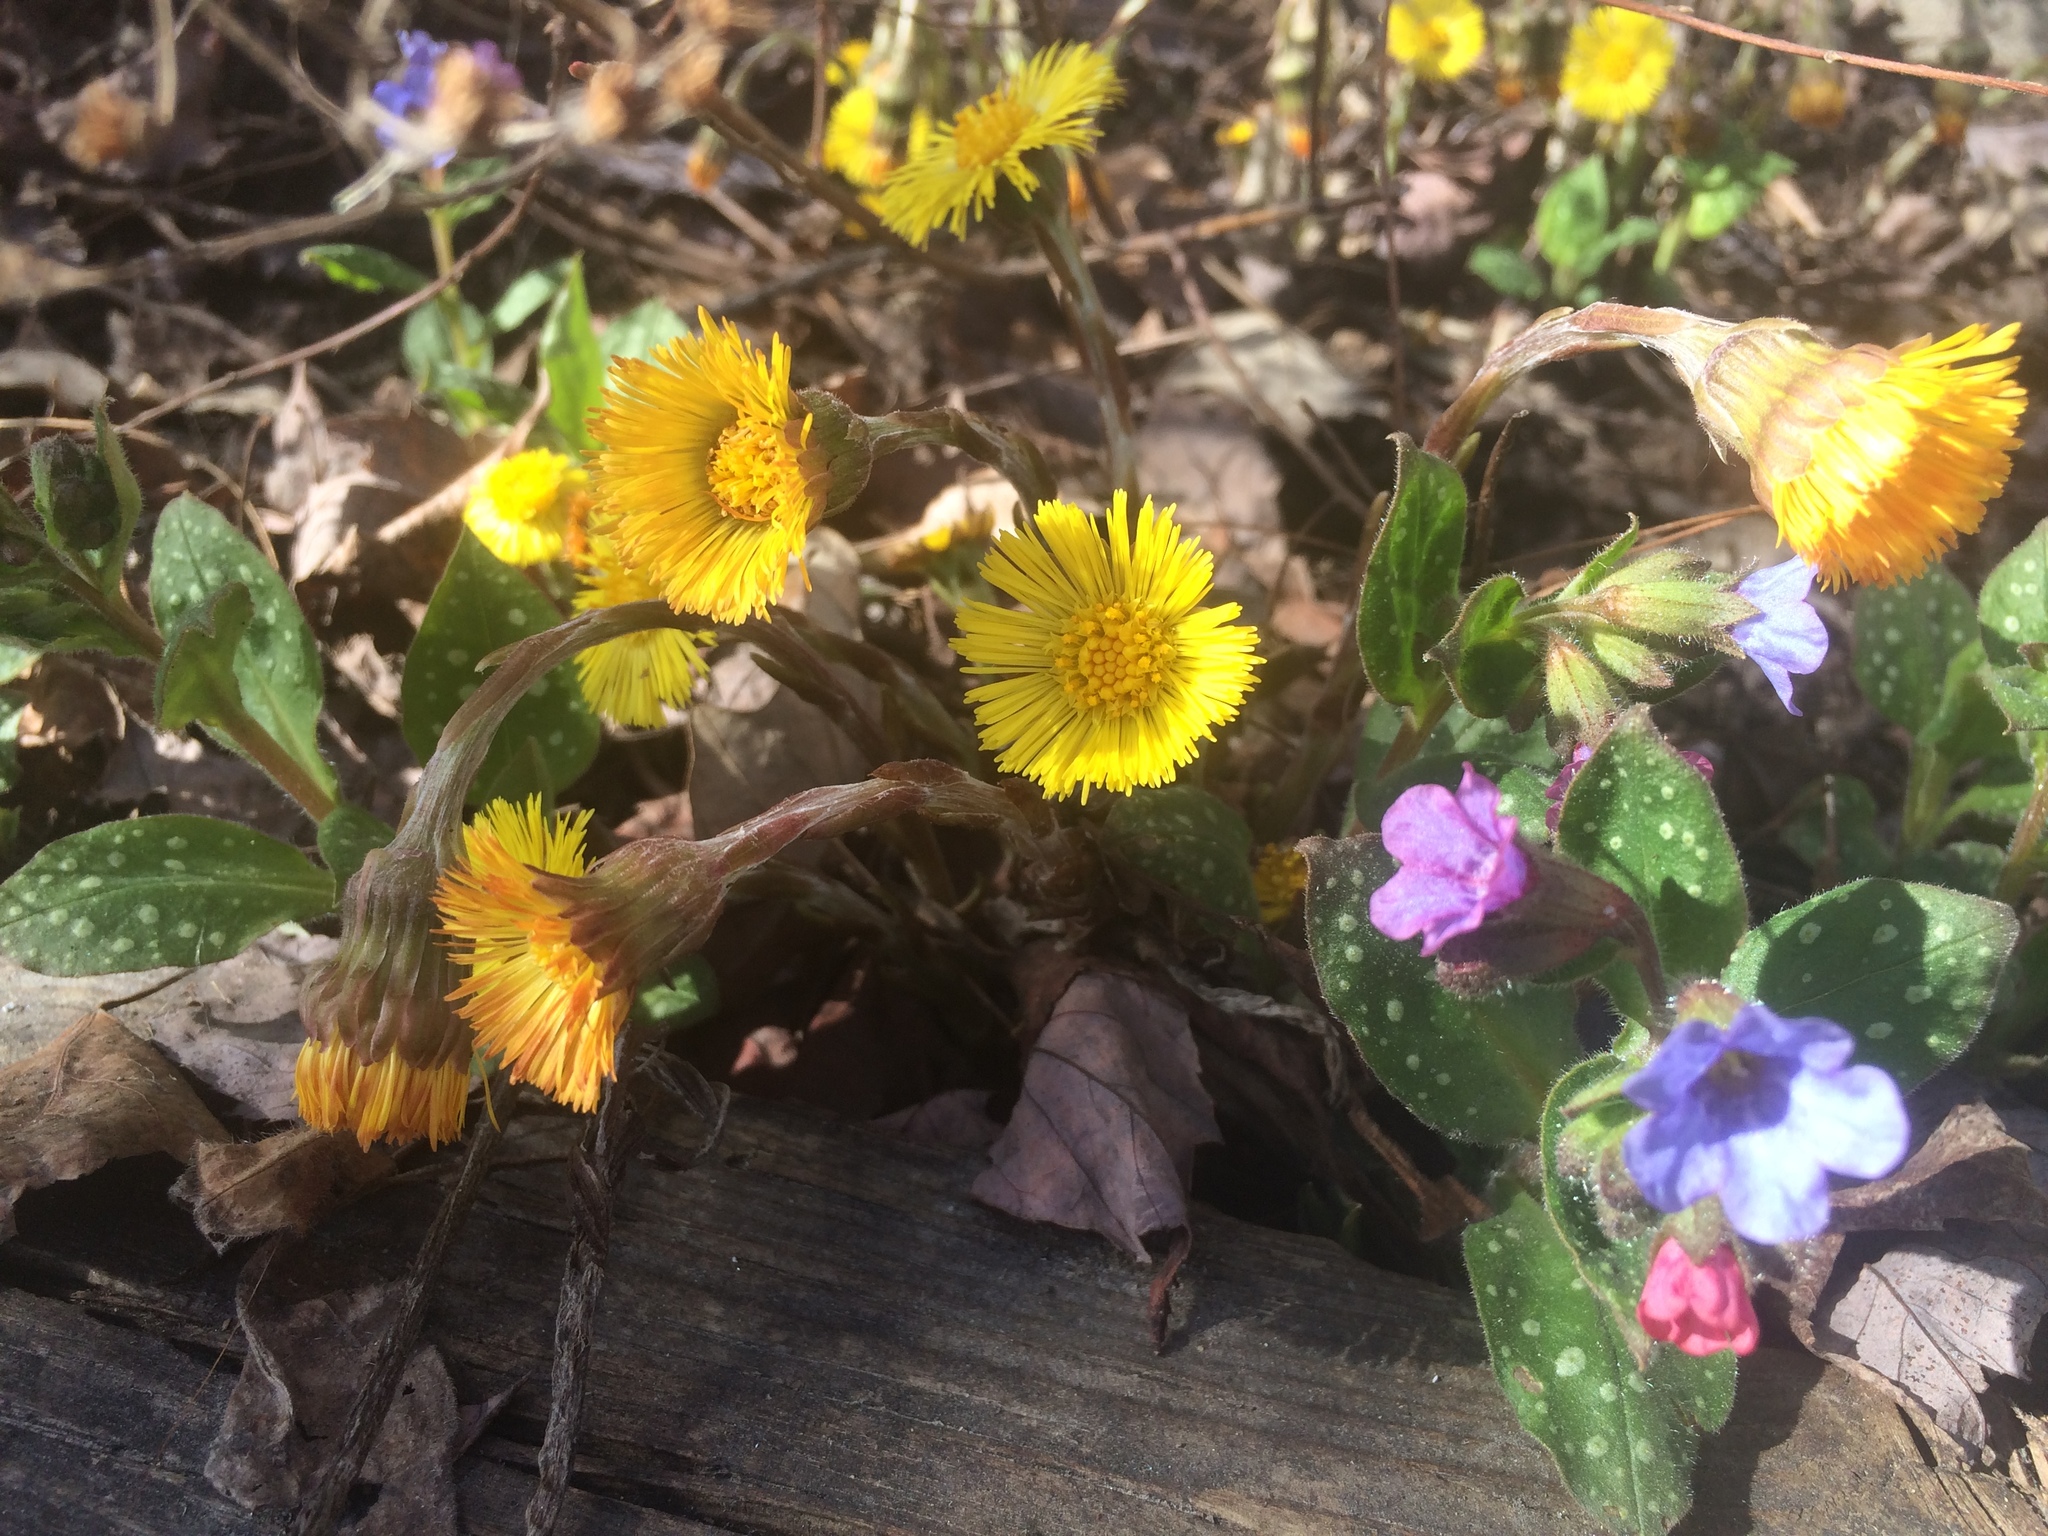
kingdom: Plantae
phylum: Tracheophyta
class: Magnoliopsida
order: Asterales
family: Asteraceae
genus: Tussilago
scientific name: Tussilago farfara
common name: Coltsfoot
